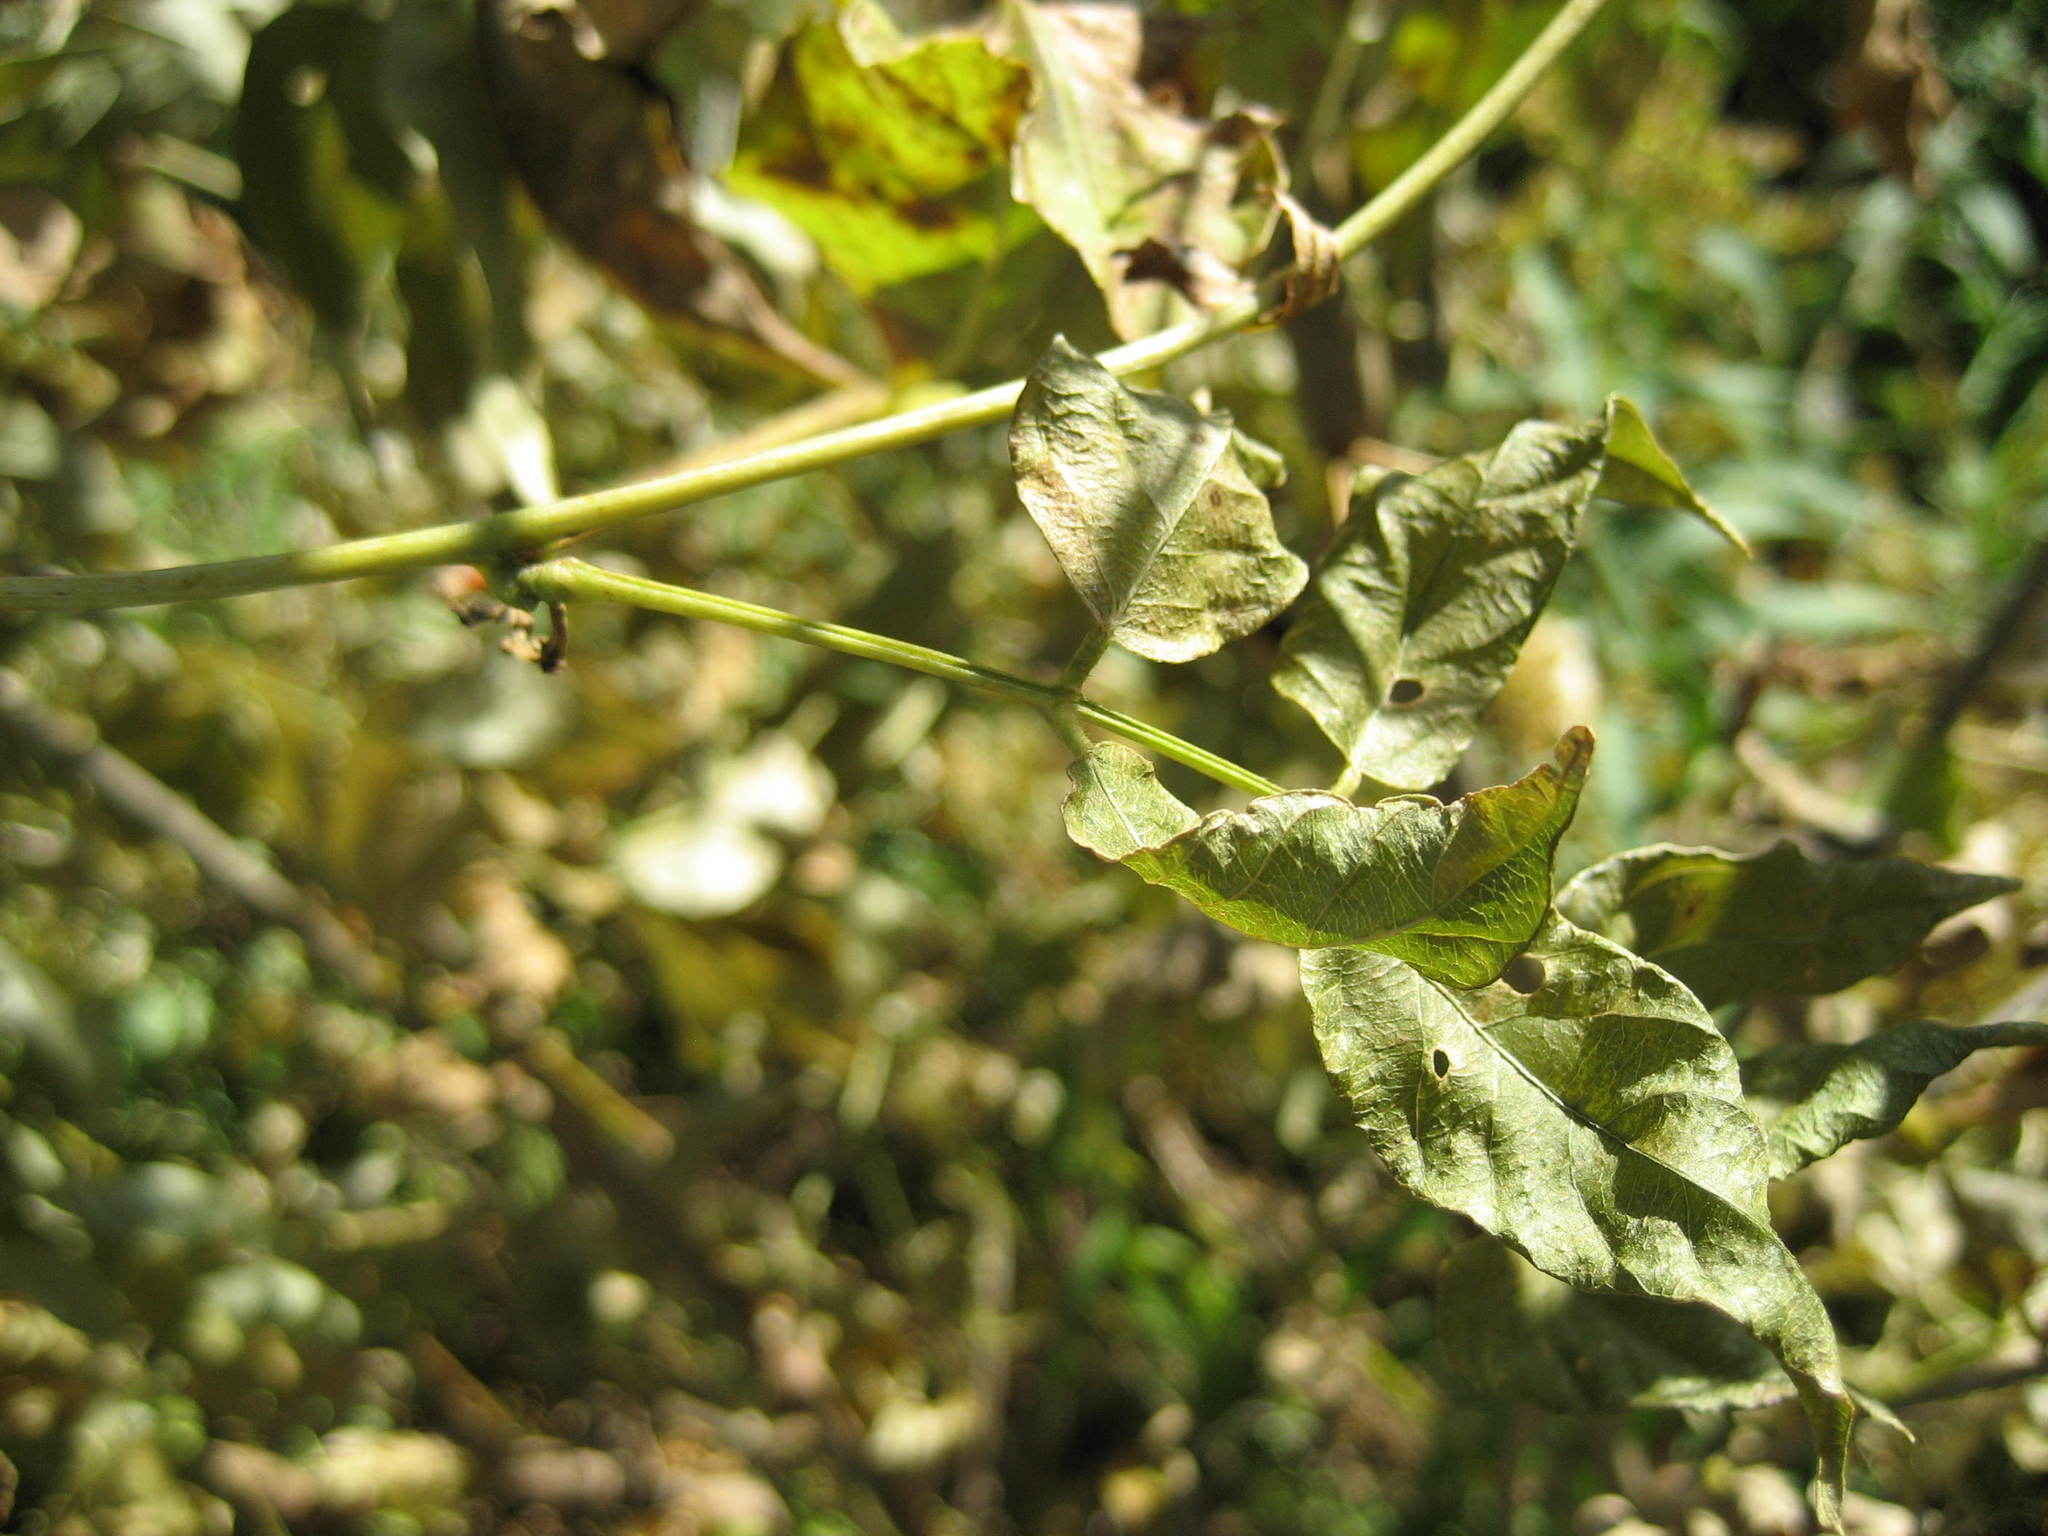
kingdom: Plantae
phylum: Tracheophyta
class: Magnoliopsida
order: Fabales
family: Fabaceae
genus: Apios
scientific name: Apios americana
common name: American potato-bean
